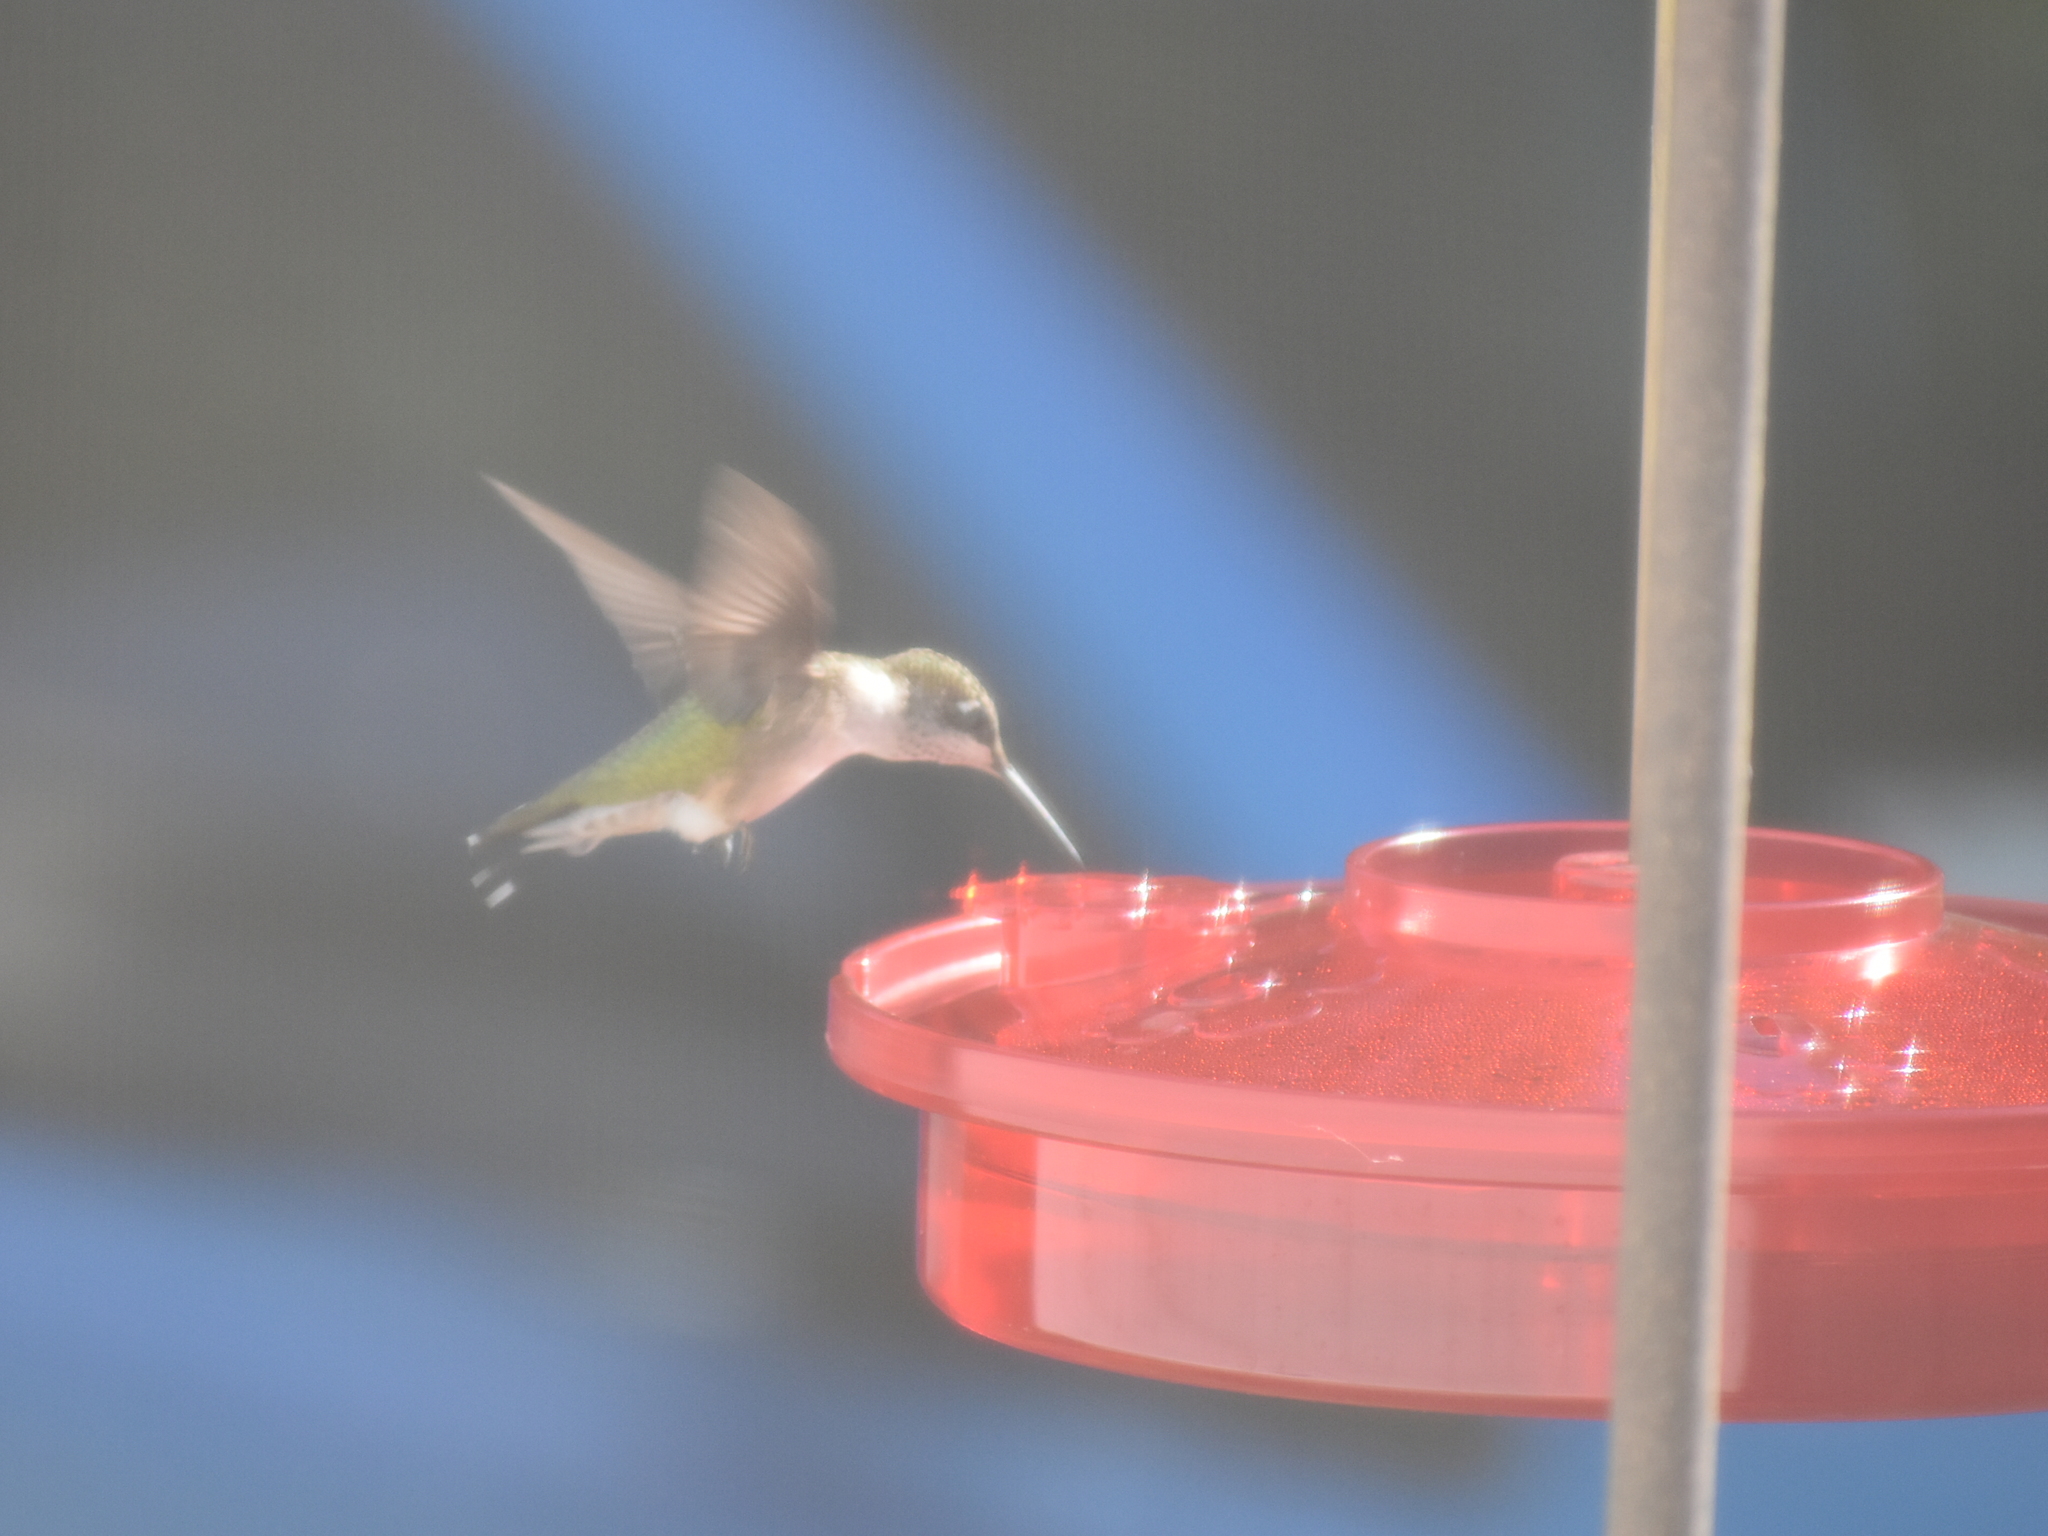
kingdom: Animalia
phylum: Chordata
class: Aves
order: Apodiformes
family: Trochilidae
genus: Archilochus
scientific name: Archilochus colubris
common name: Ruby-throated hummingbird
